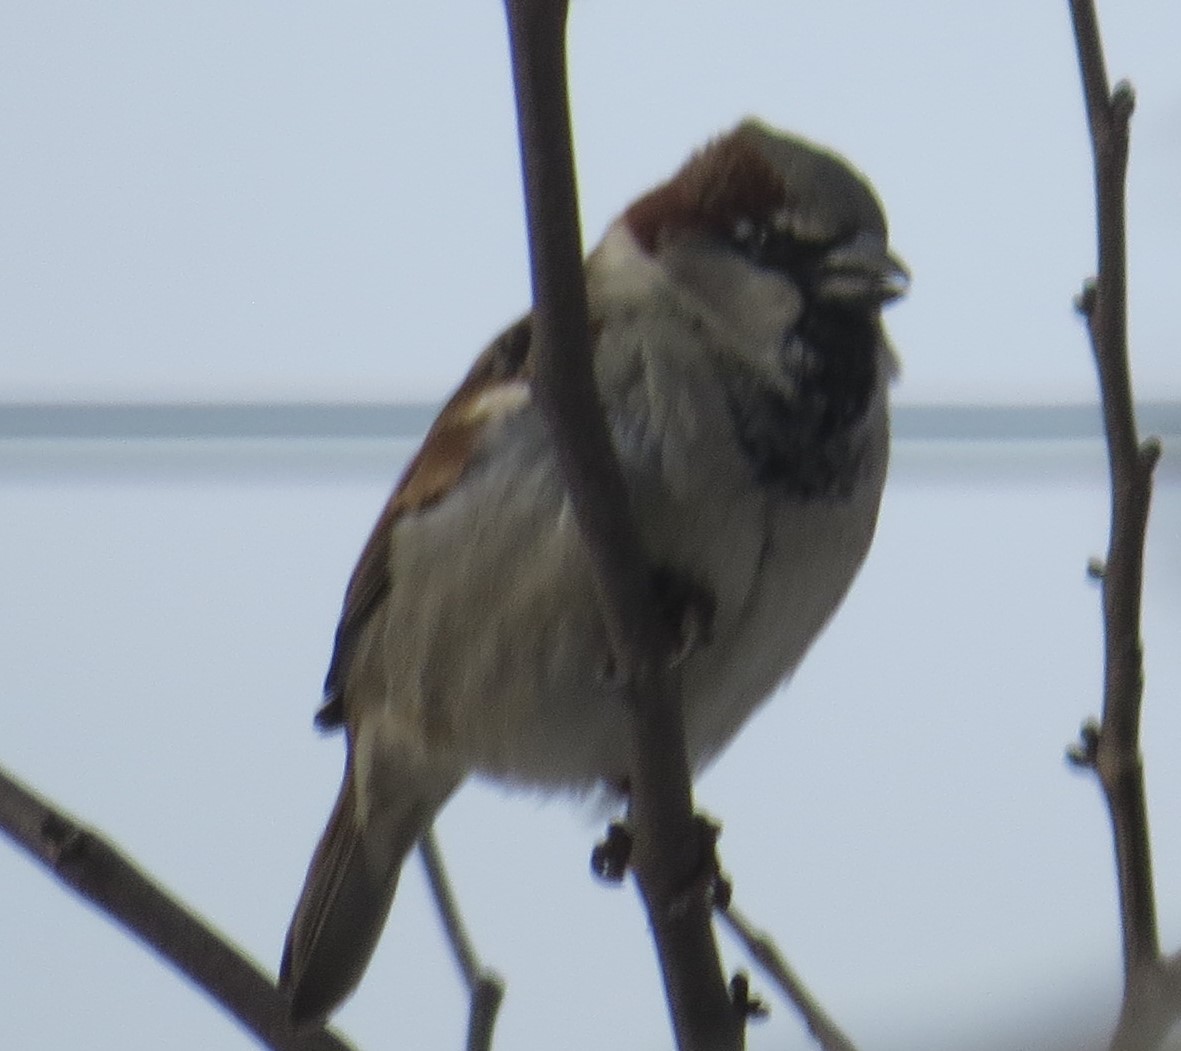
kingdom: Animalia
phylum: Chordata
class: Aves
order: Passeriformes
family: Passeridae
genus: Passer
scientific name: Passer domesticus
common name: House sparrow
